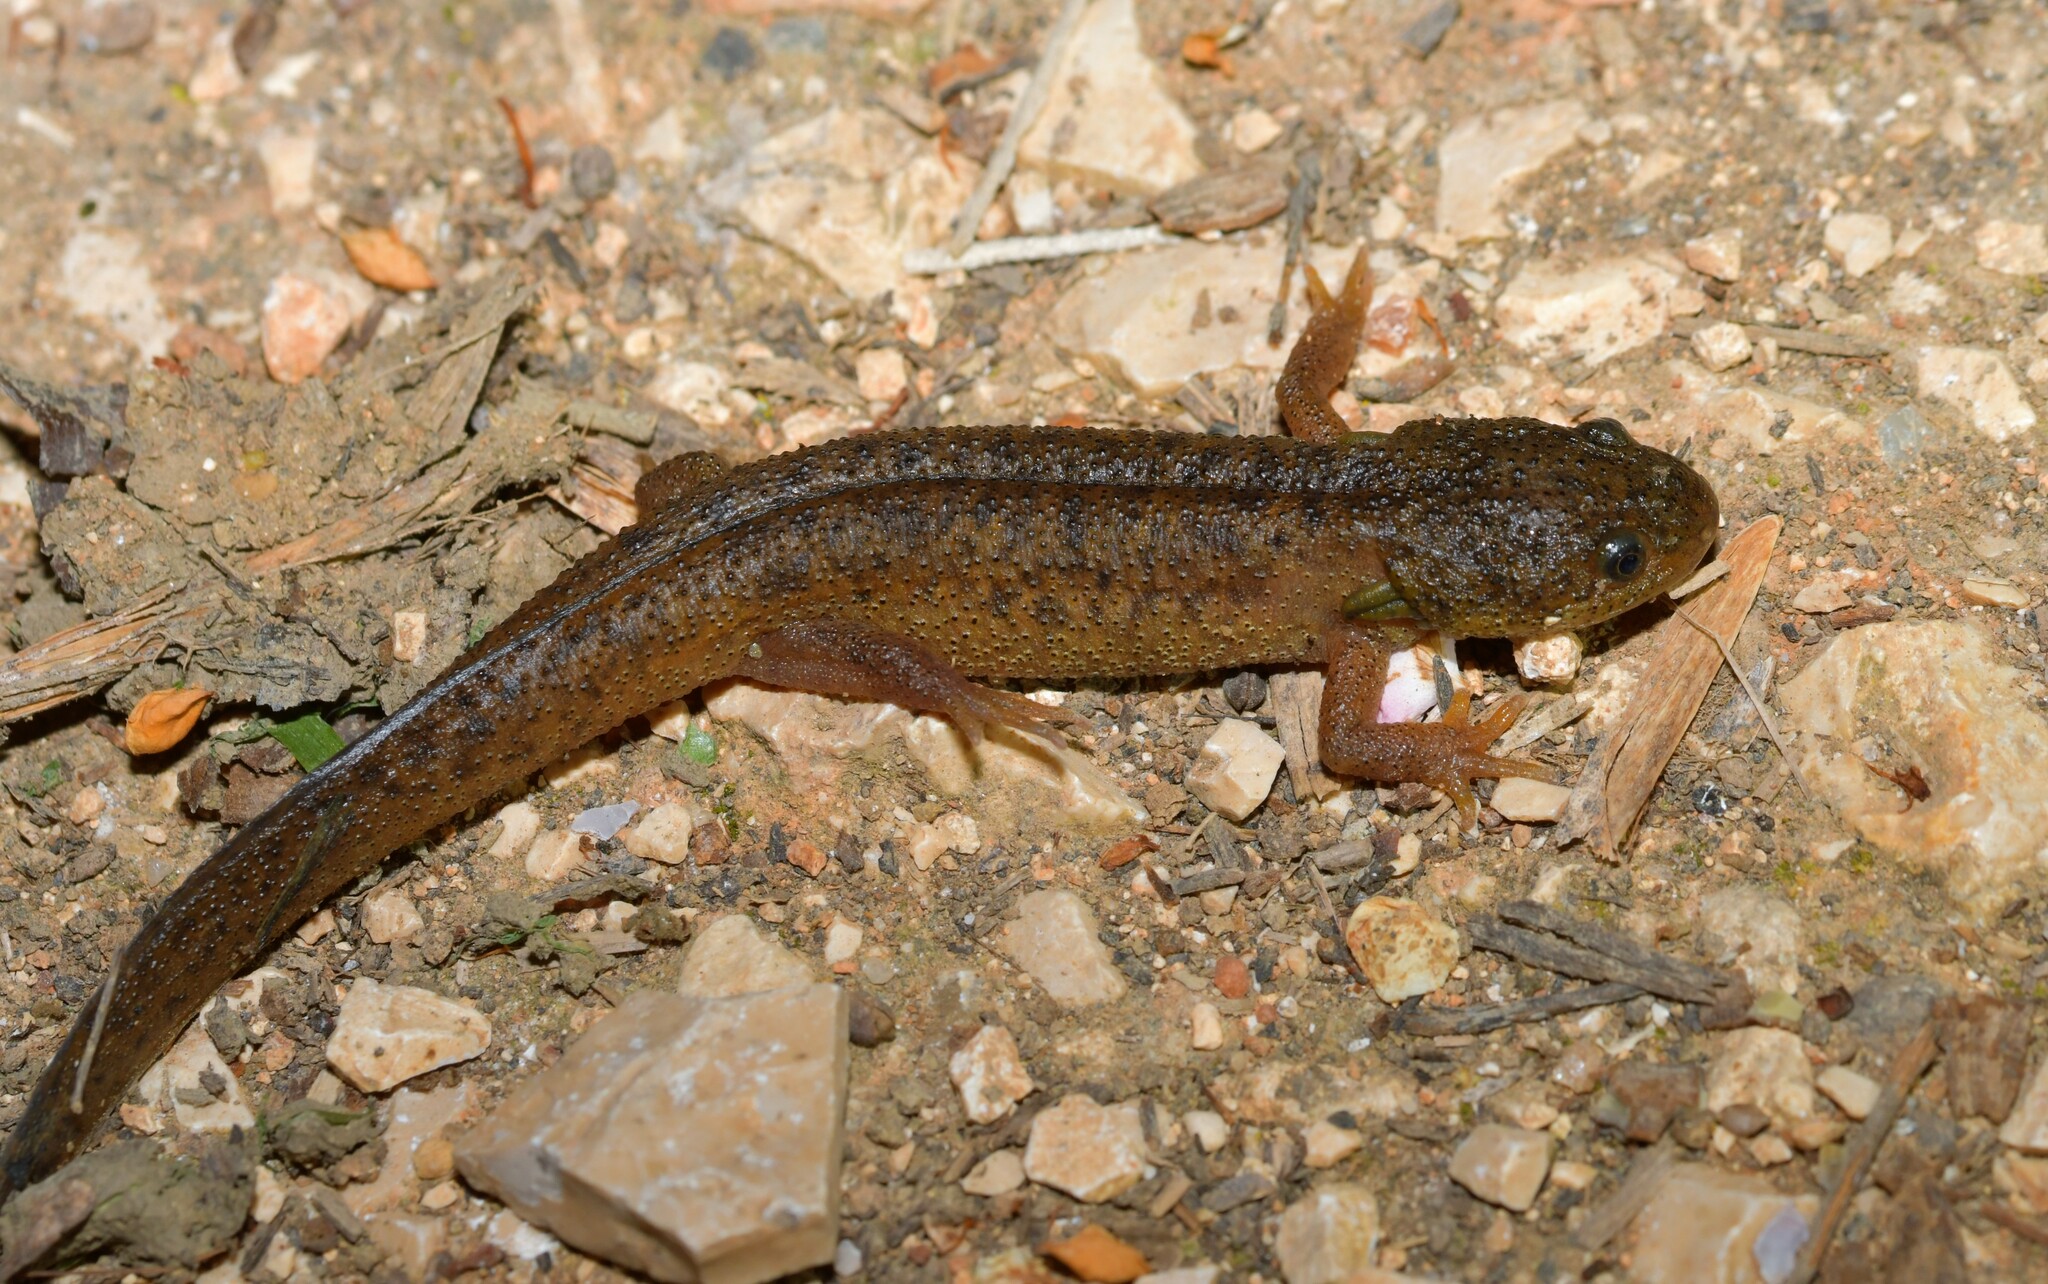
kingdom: Animalia
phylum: Chordata
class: Amphibia
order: Caudata
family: Salamandridae
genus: Pleurodeles
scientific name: Pleurodeles waltl
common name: Iberian ribbed newt
